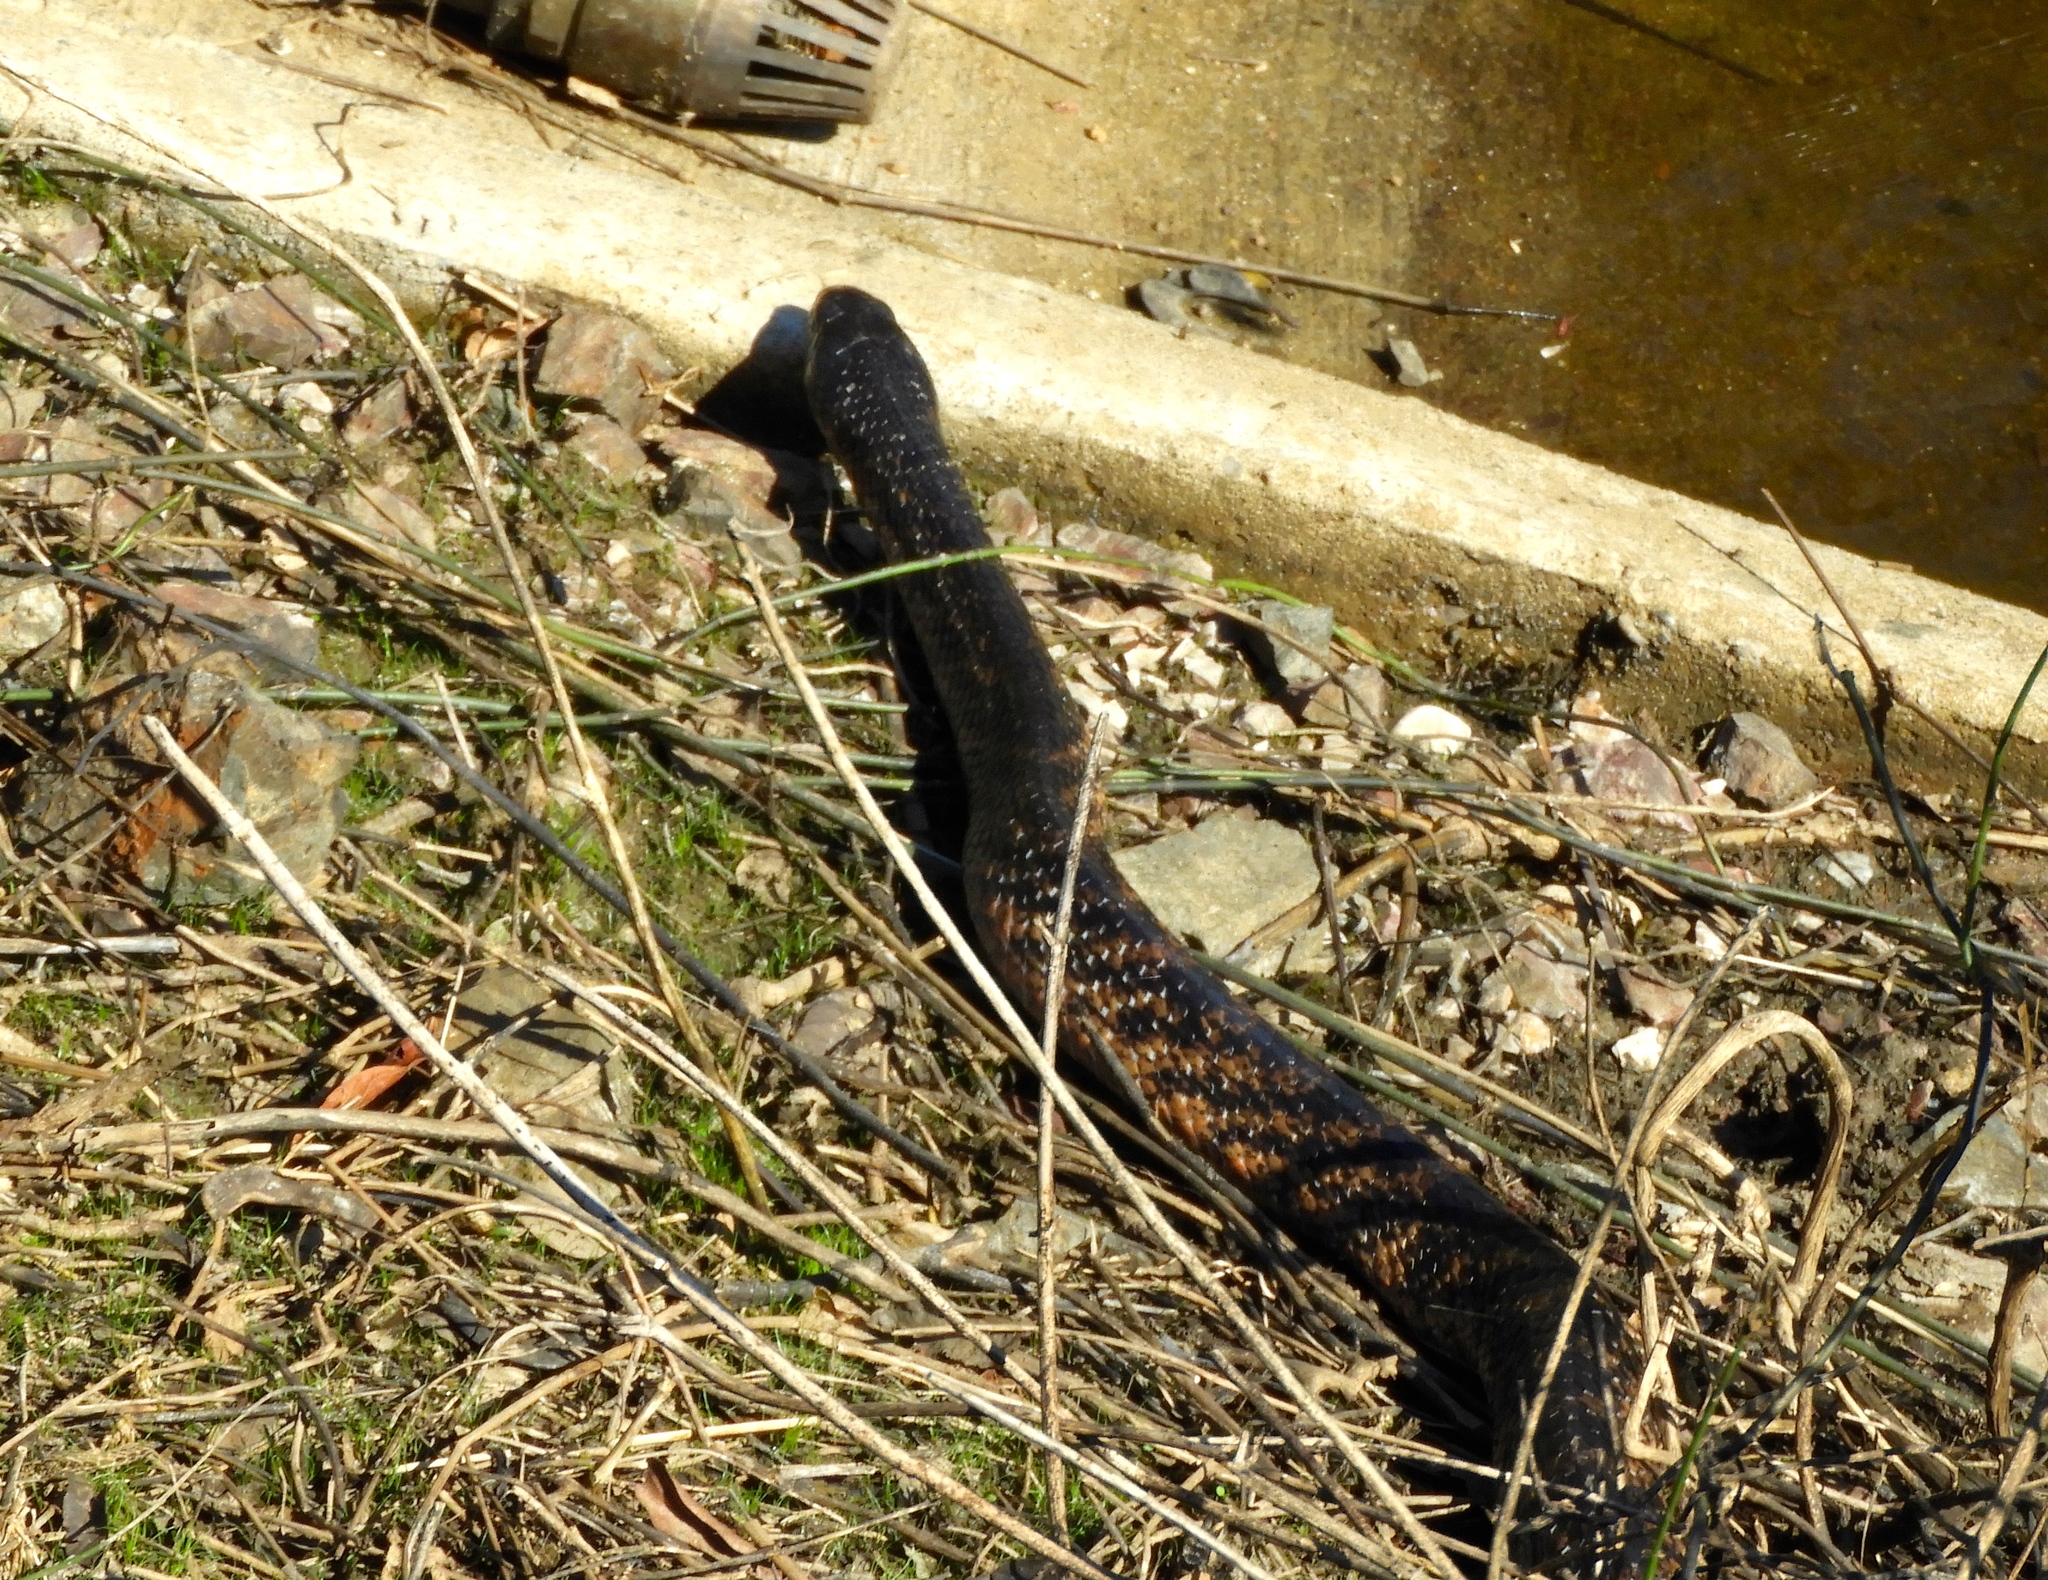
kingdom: Animalia
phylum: Chordata
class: Squamata
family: Colubridae
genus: Drymarchon
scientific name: Drymarchon melanurus
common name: Central american indigo snake
